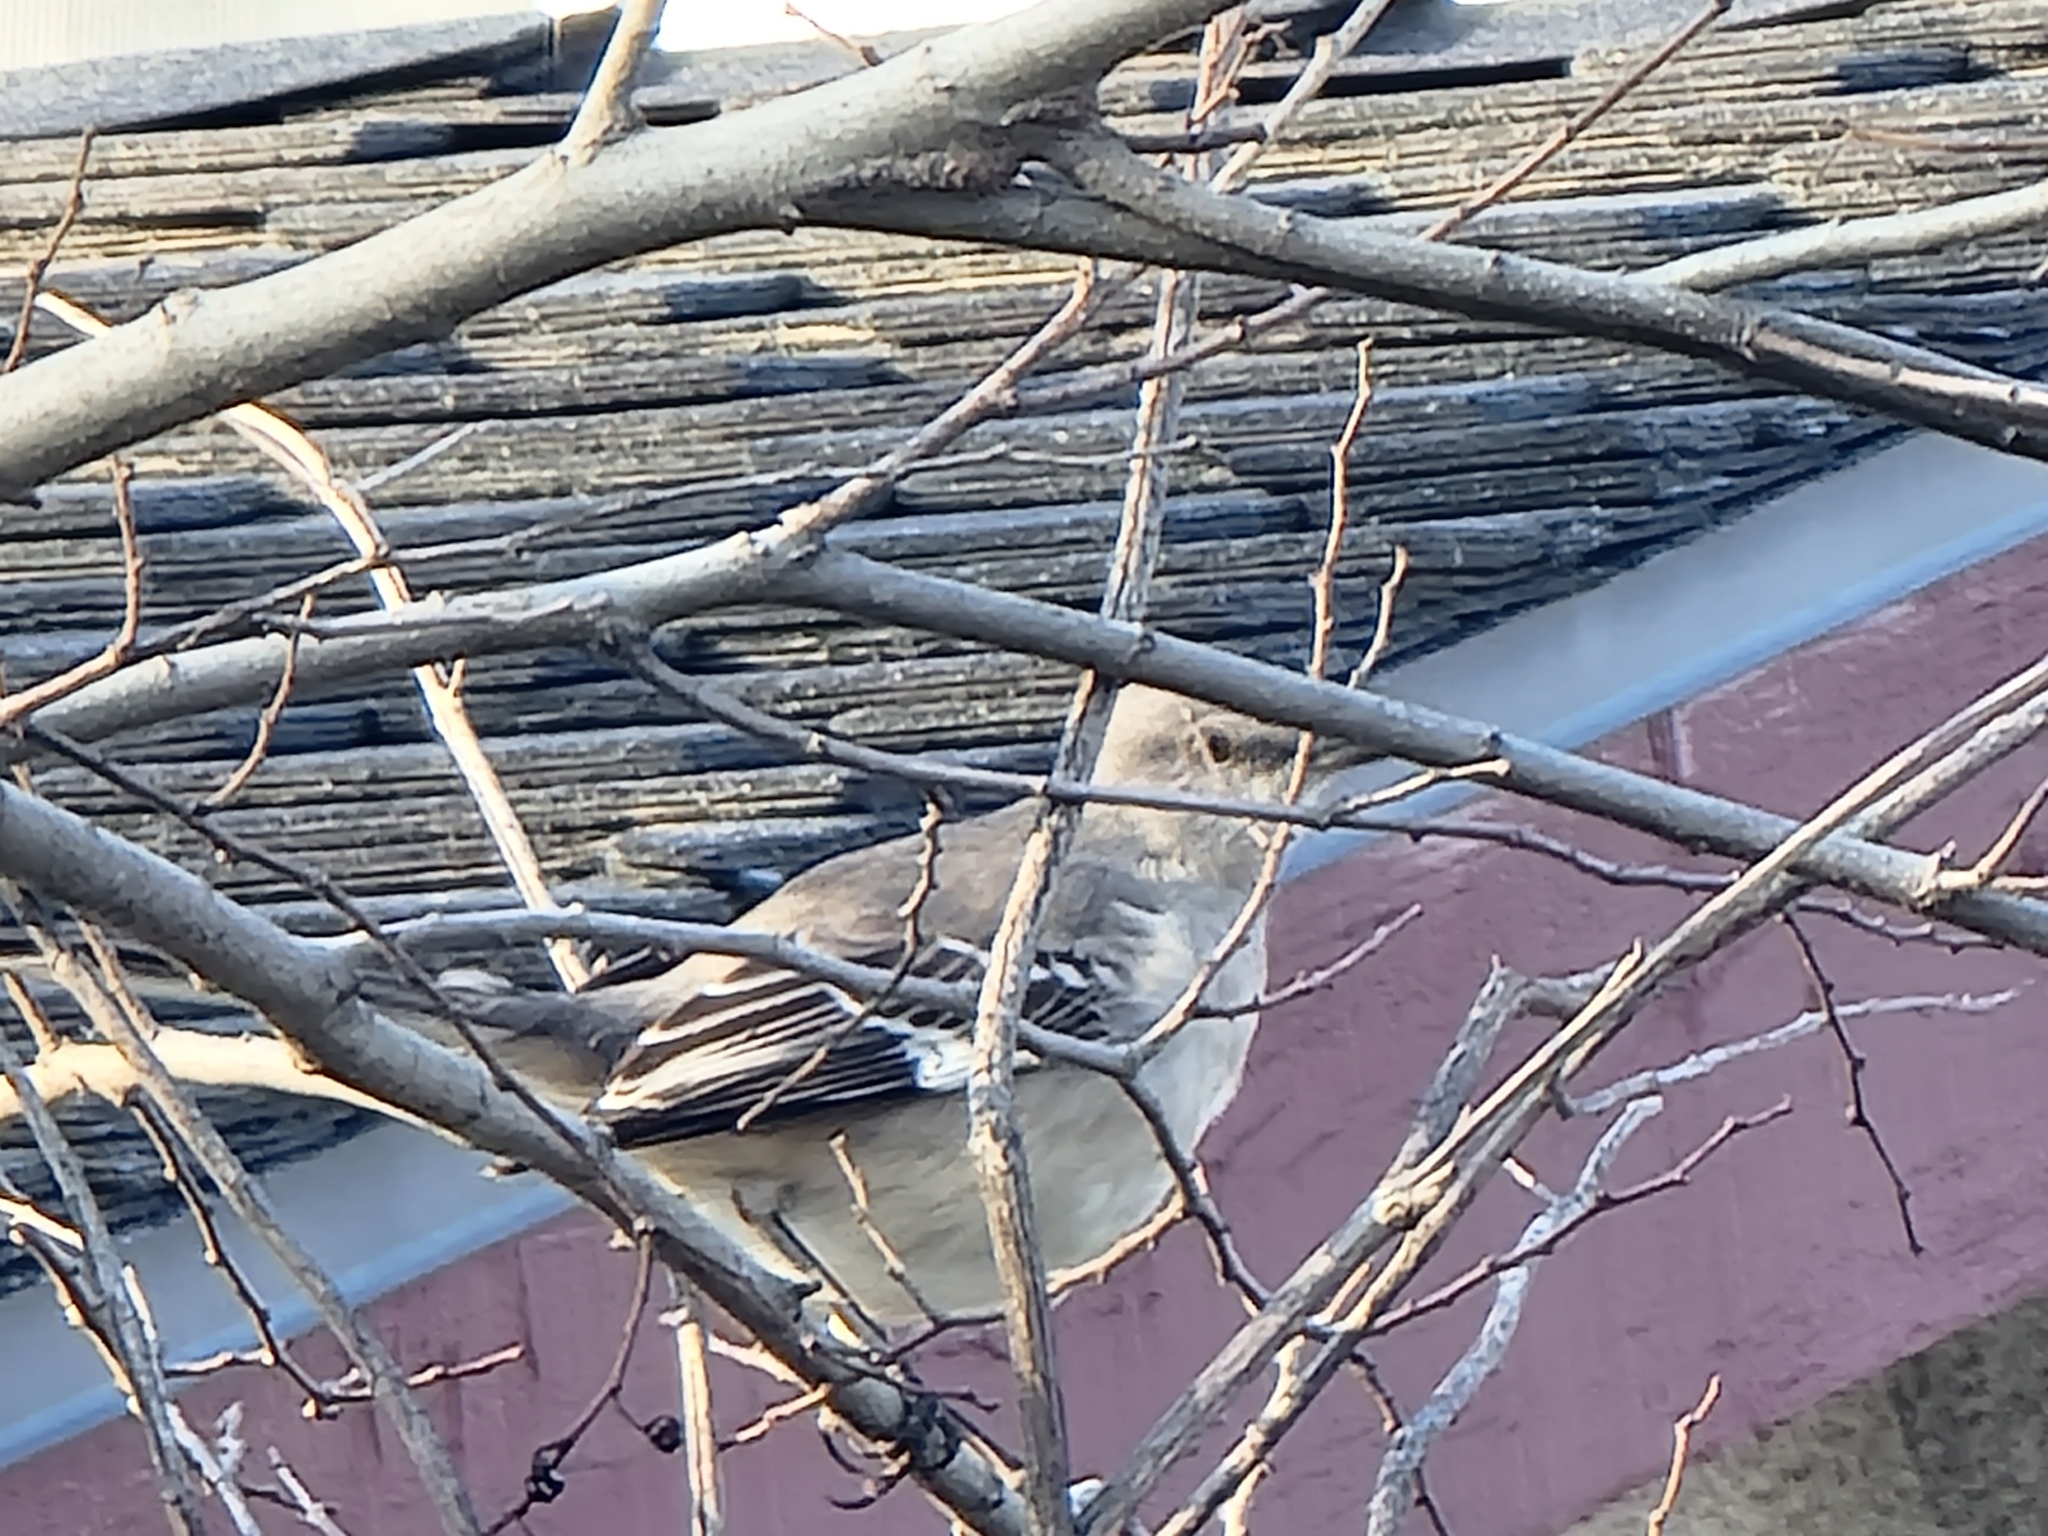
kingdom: Animalia
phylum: Chordata
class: Aves
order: Passeriformes
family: Mimidae
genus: Mimus
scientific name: Mimus polyglottos
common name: Northern mockingbird
